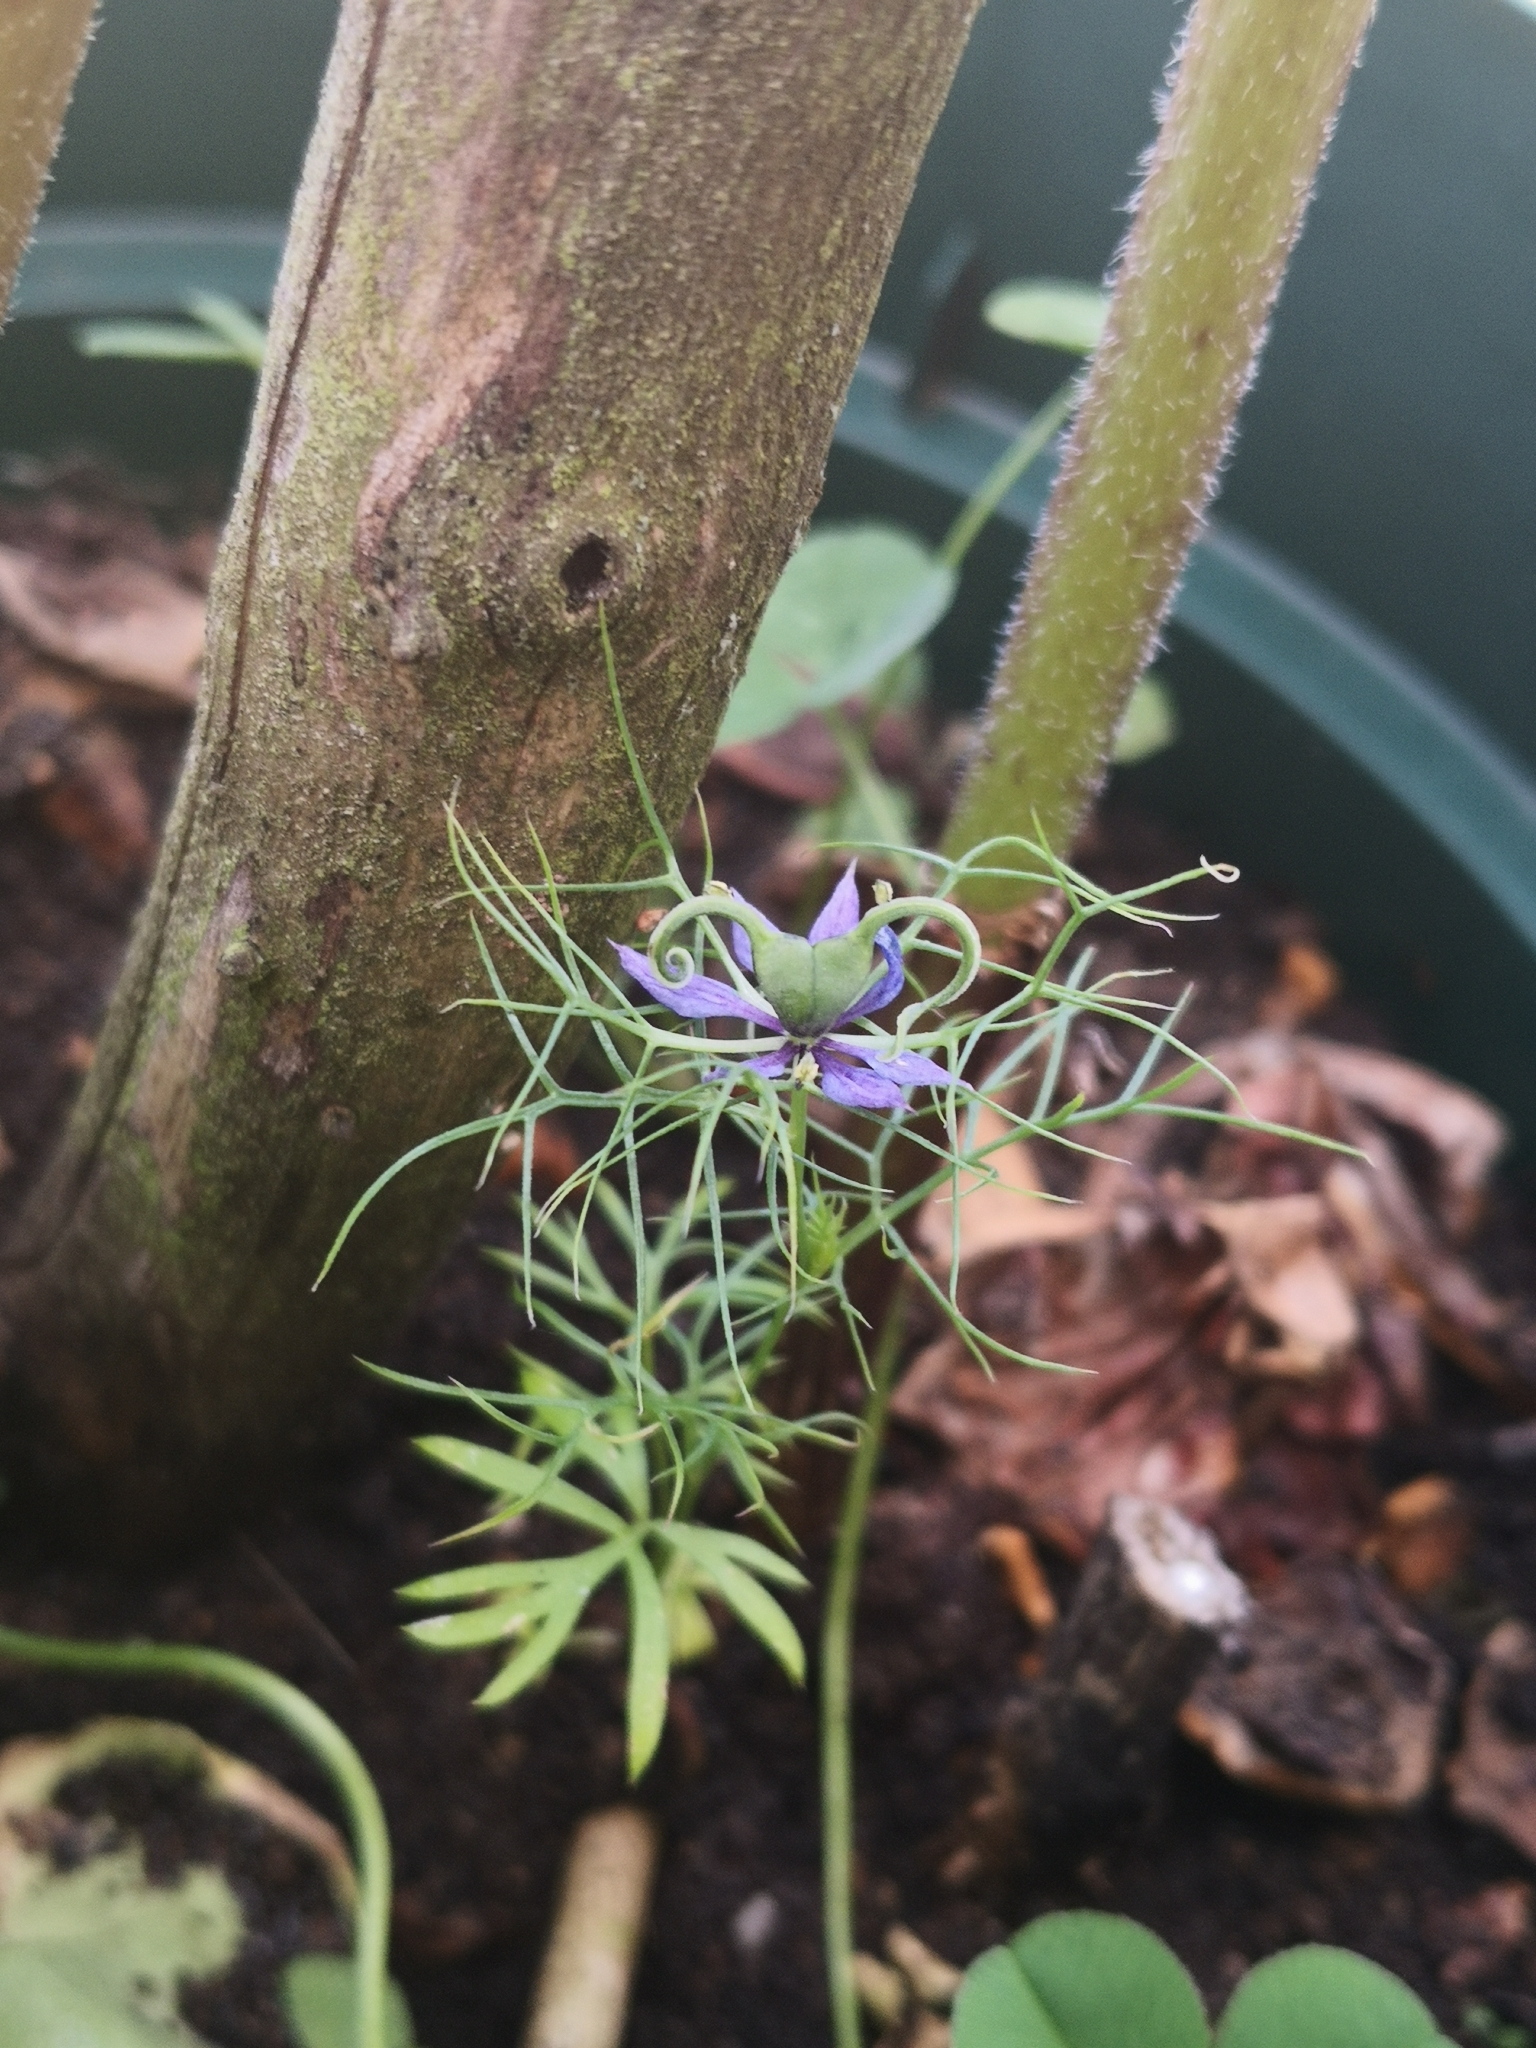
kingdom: Plantae
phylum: Tracheophyta
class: Magnoliopsida
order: Ranunculales
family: Ranunculaceae
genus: Nigella
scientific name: Nigella damascena
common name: Love-in-a-mist
